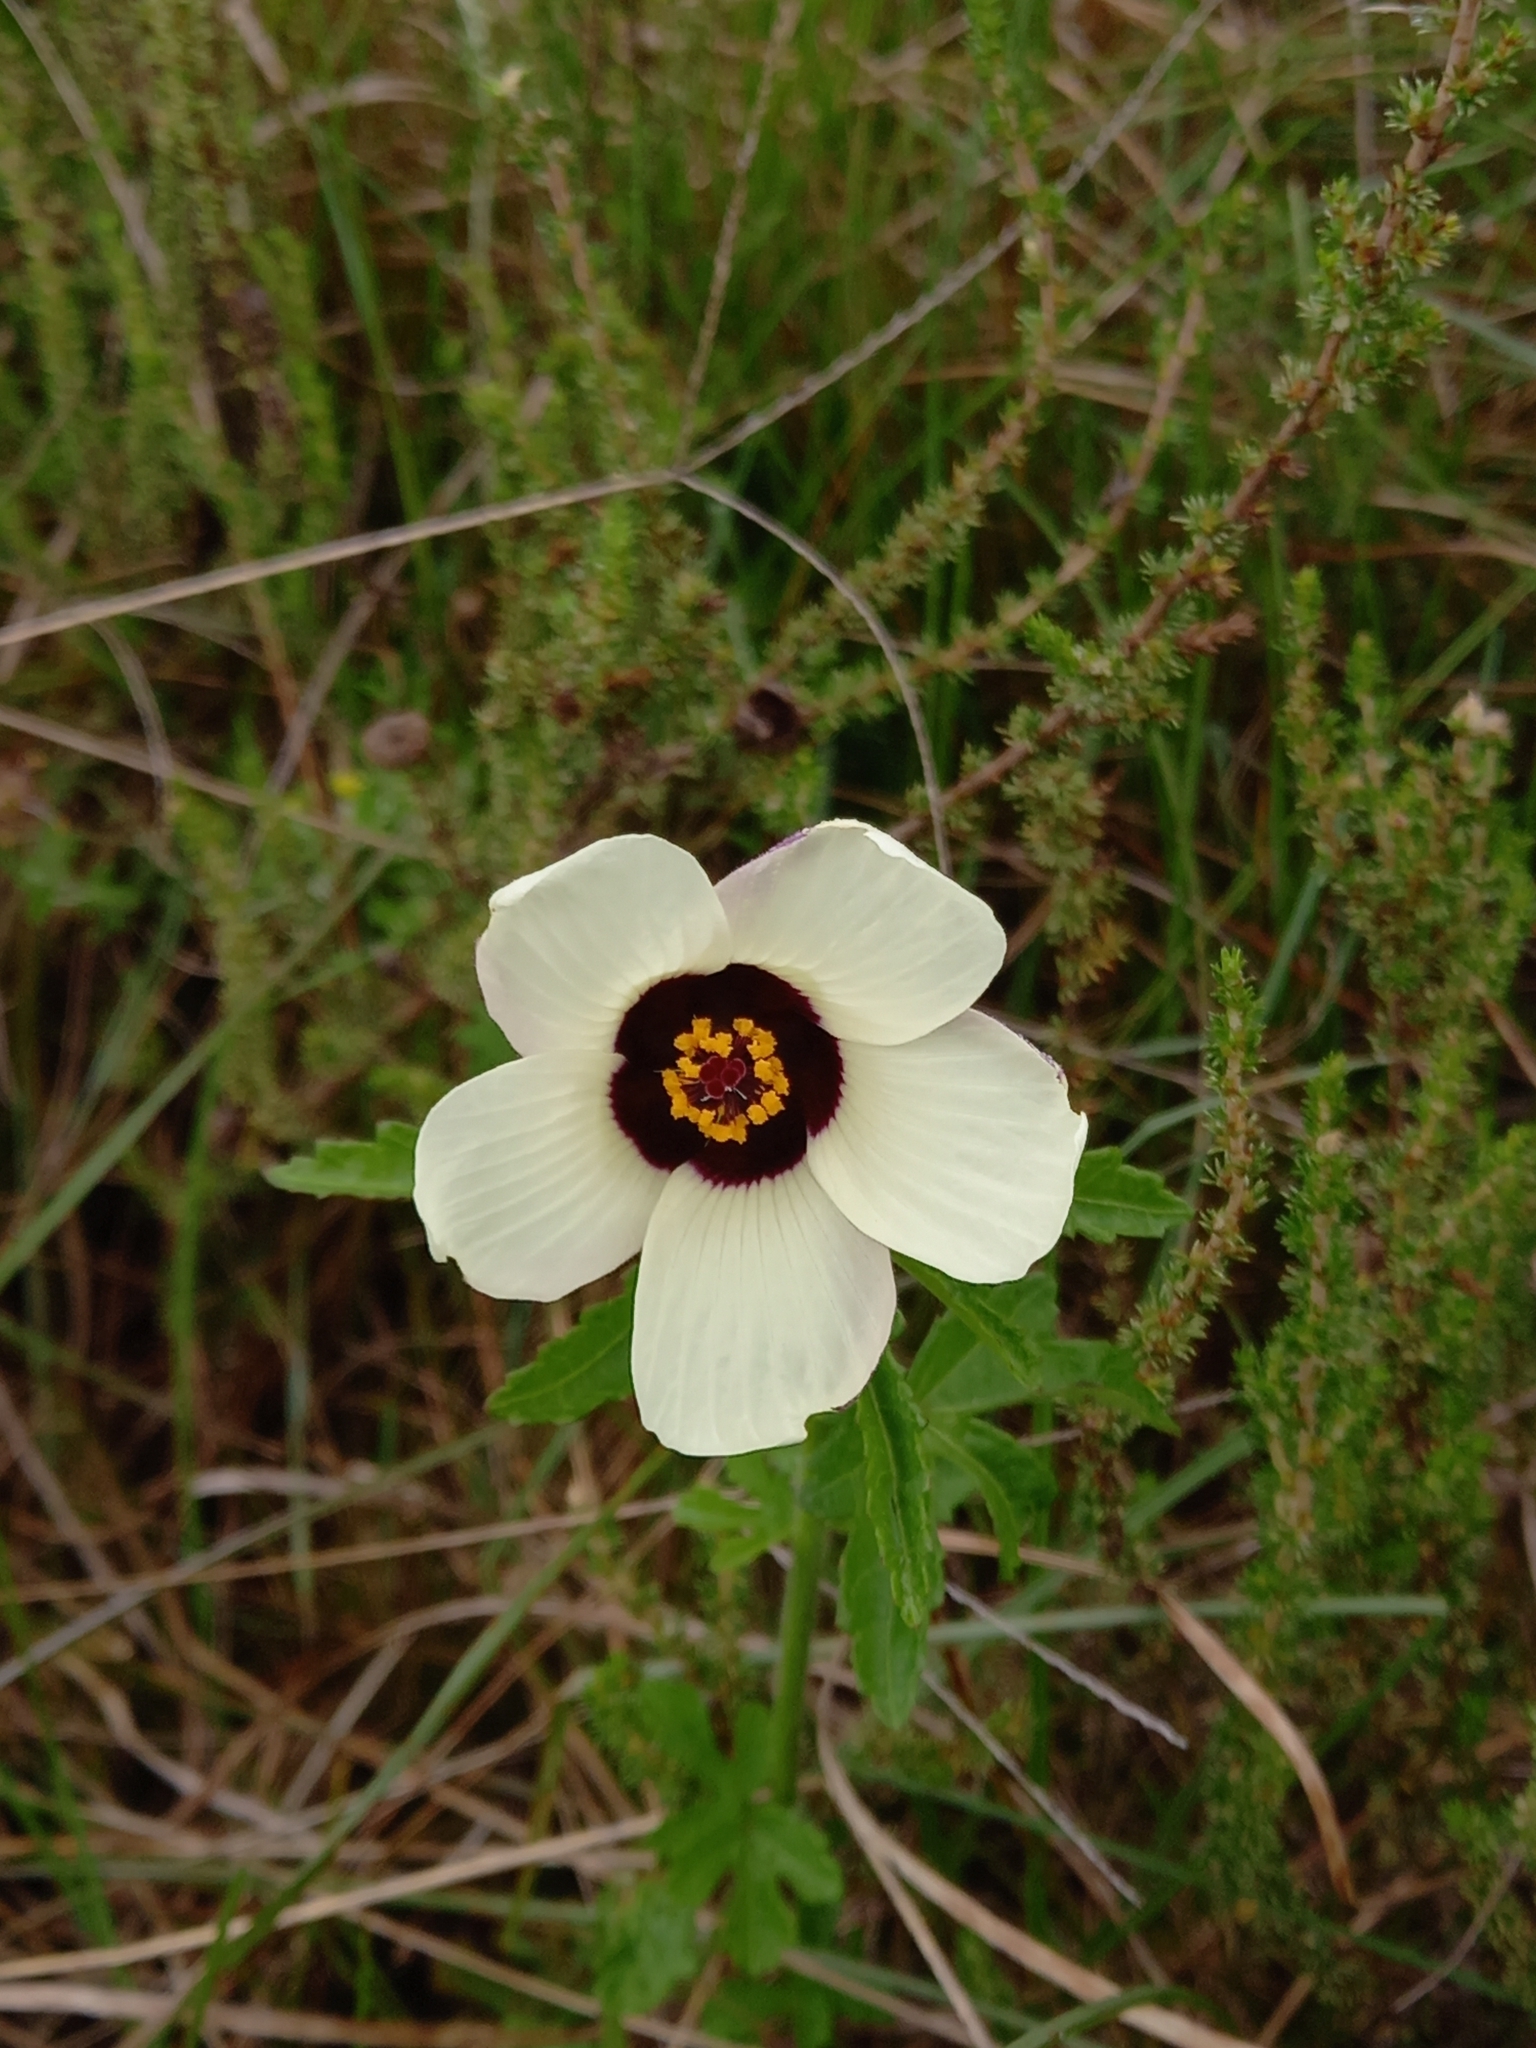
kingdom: Plantae
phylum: Tracheophyta
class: Magnoliopsida
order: Malvales
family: Malvaceae
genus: Hibiscus
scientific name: Hibiscus trionum
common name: Bladder ketmia
